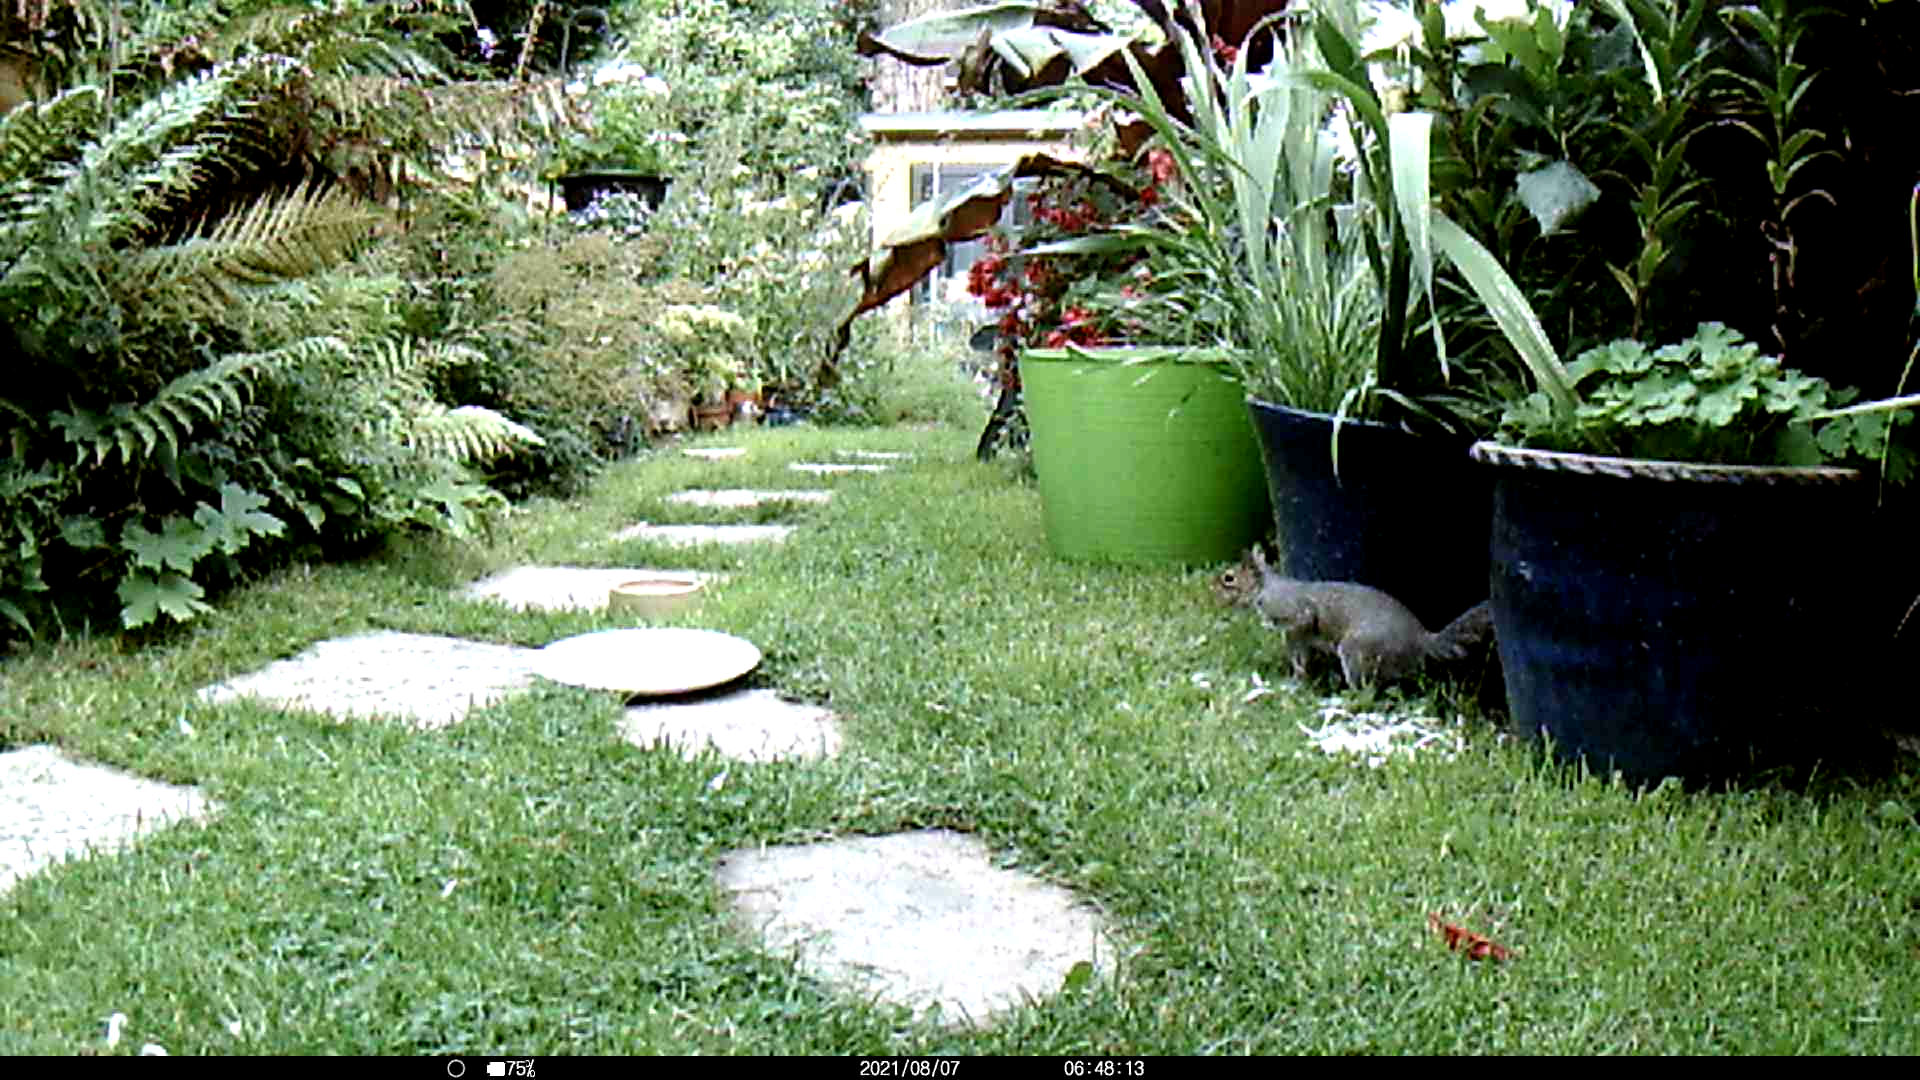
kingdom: Animalia
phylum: Chordata
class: Mammalia
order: Rodentia
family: Sciuridae
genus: Sciurus
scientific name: Sciurus carolinensis
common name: Eastern gray squirrel
